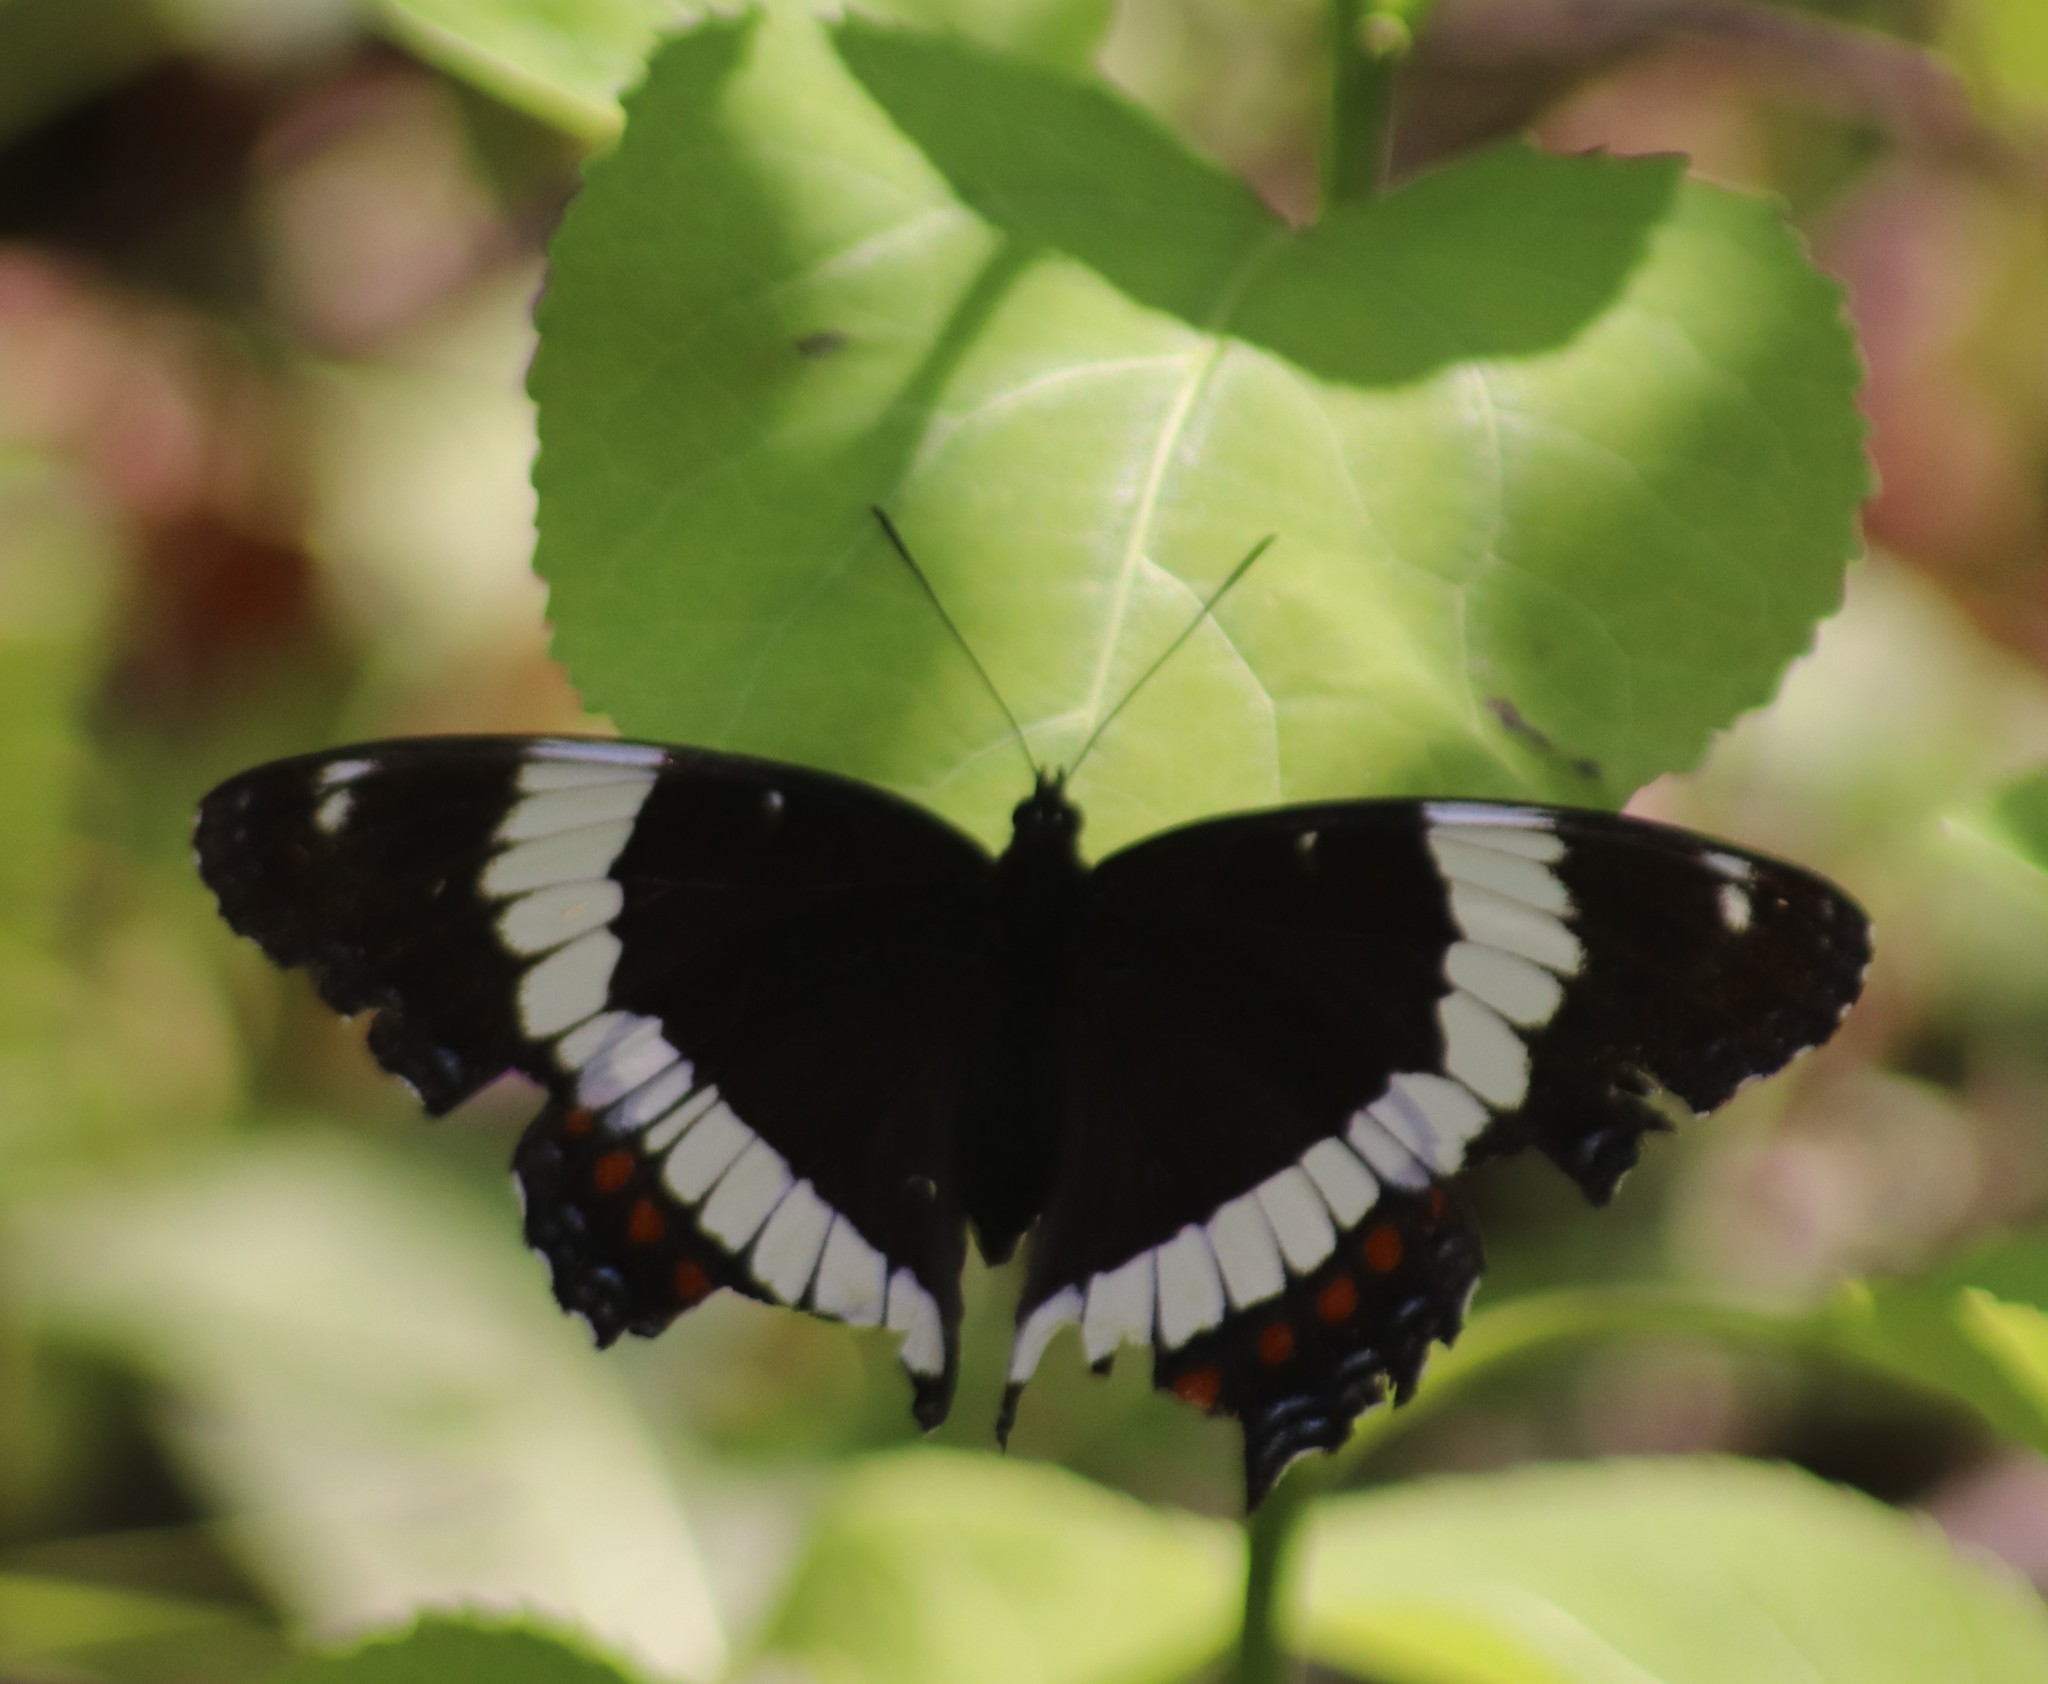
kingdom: Animalia
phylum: Arthropoda
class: Insecta
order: Lepidoptera
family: Nymphalidae
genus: Limenitis
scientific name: Limenitis arthemis
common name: Red-spotted admiral
